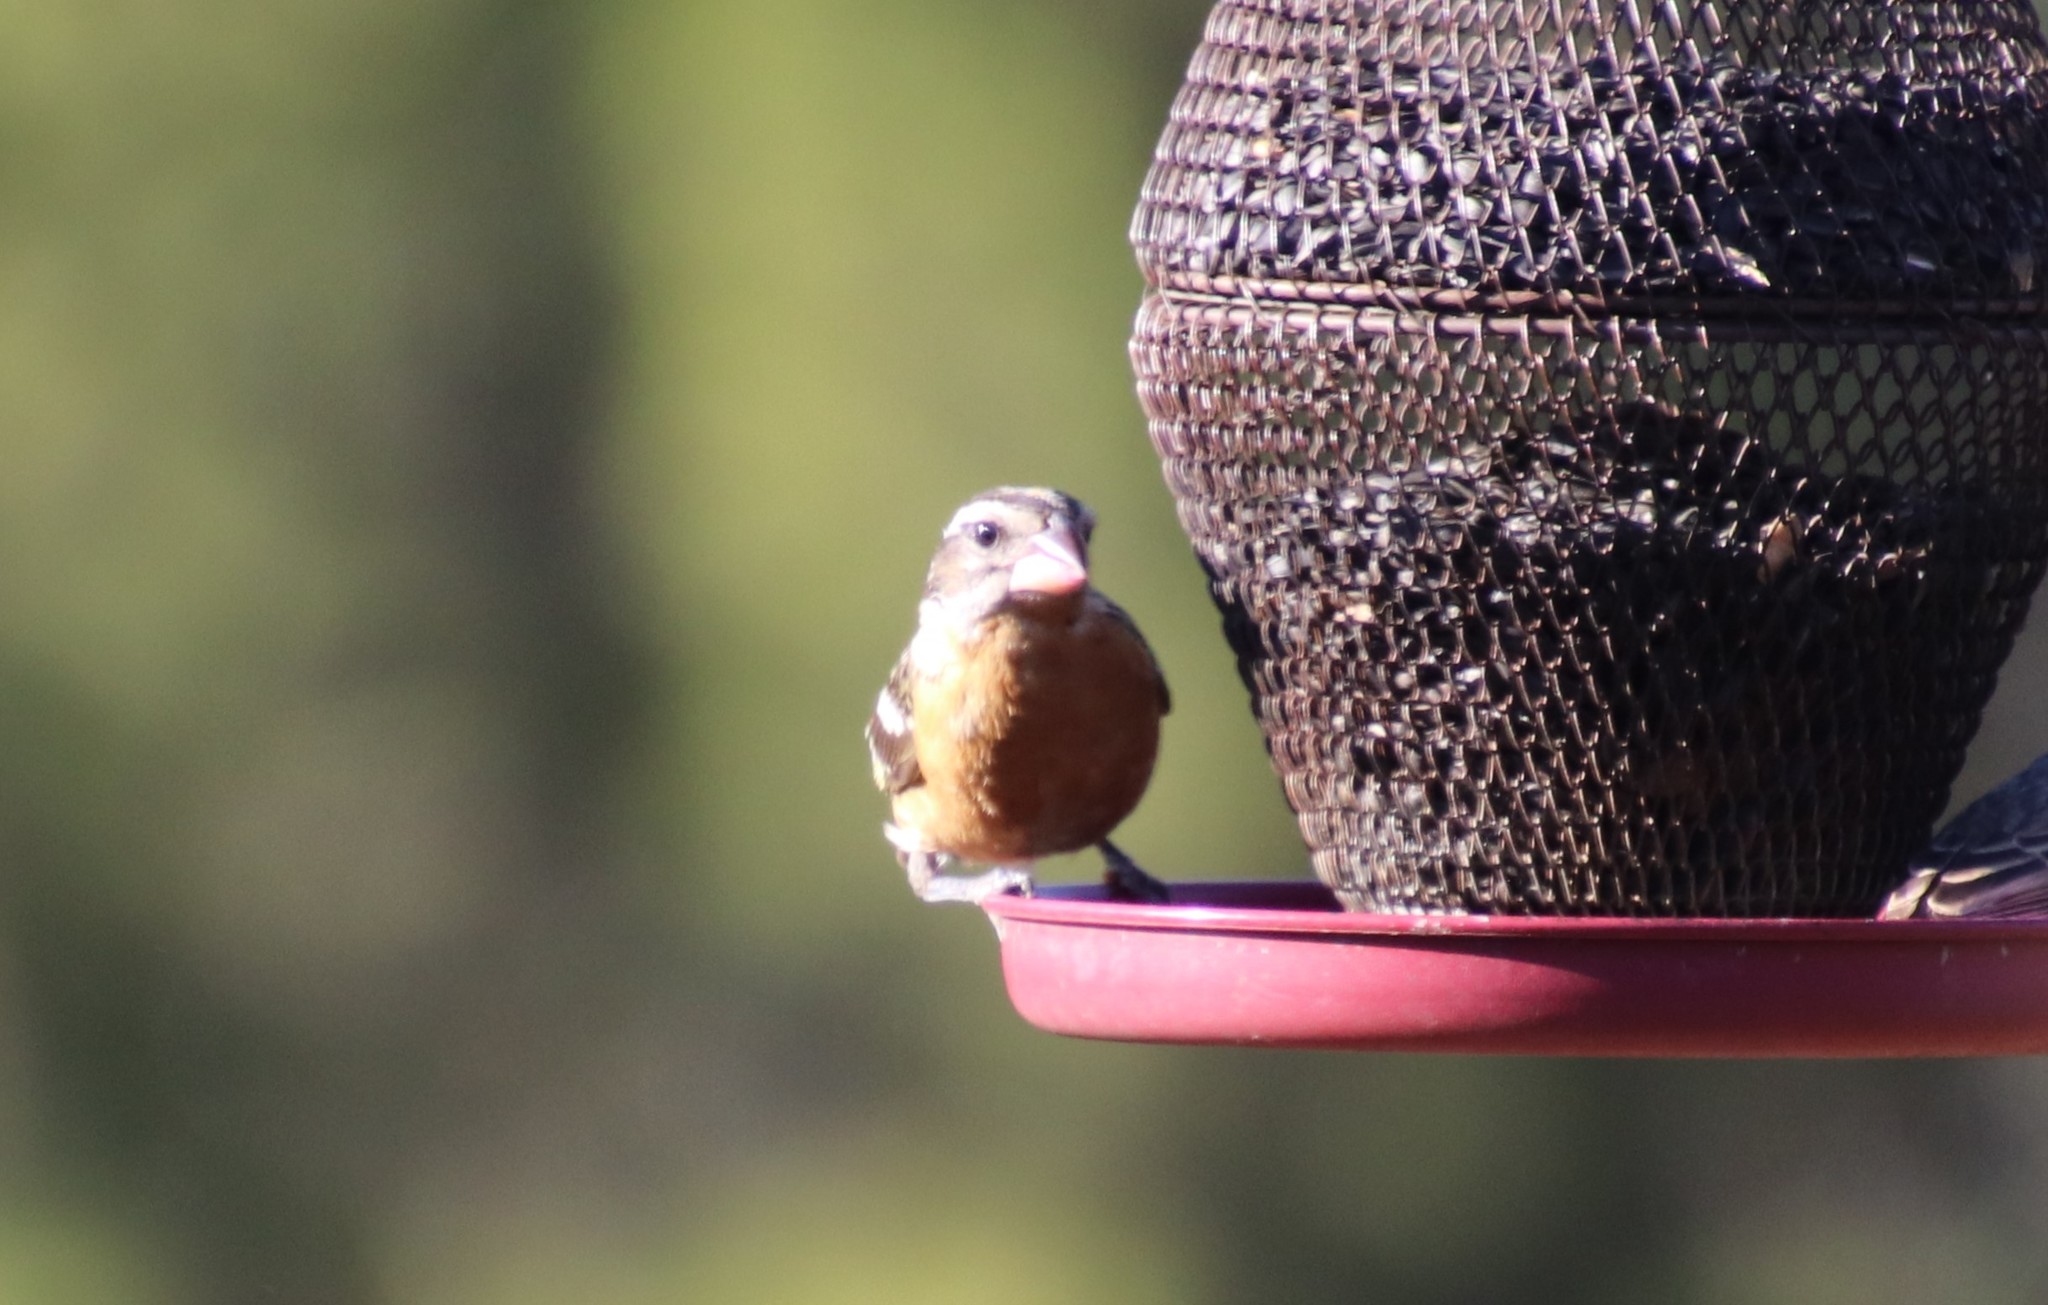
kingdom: Animalia
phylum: Chordata
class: Aves
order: Passeriformes
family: Cardinalidae
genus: Pheucticus
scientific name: Pheucticus melanocephalus
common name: Black-headed grosbeak
